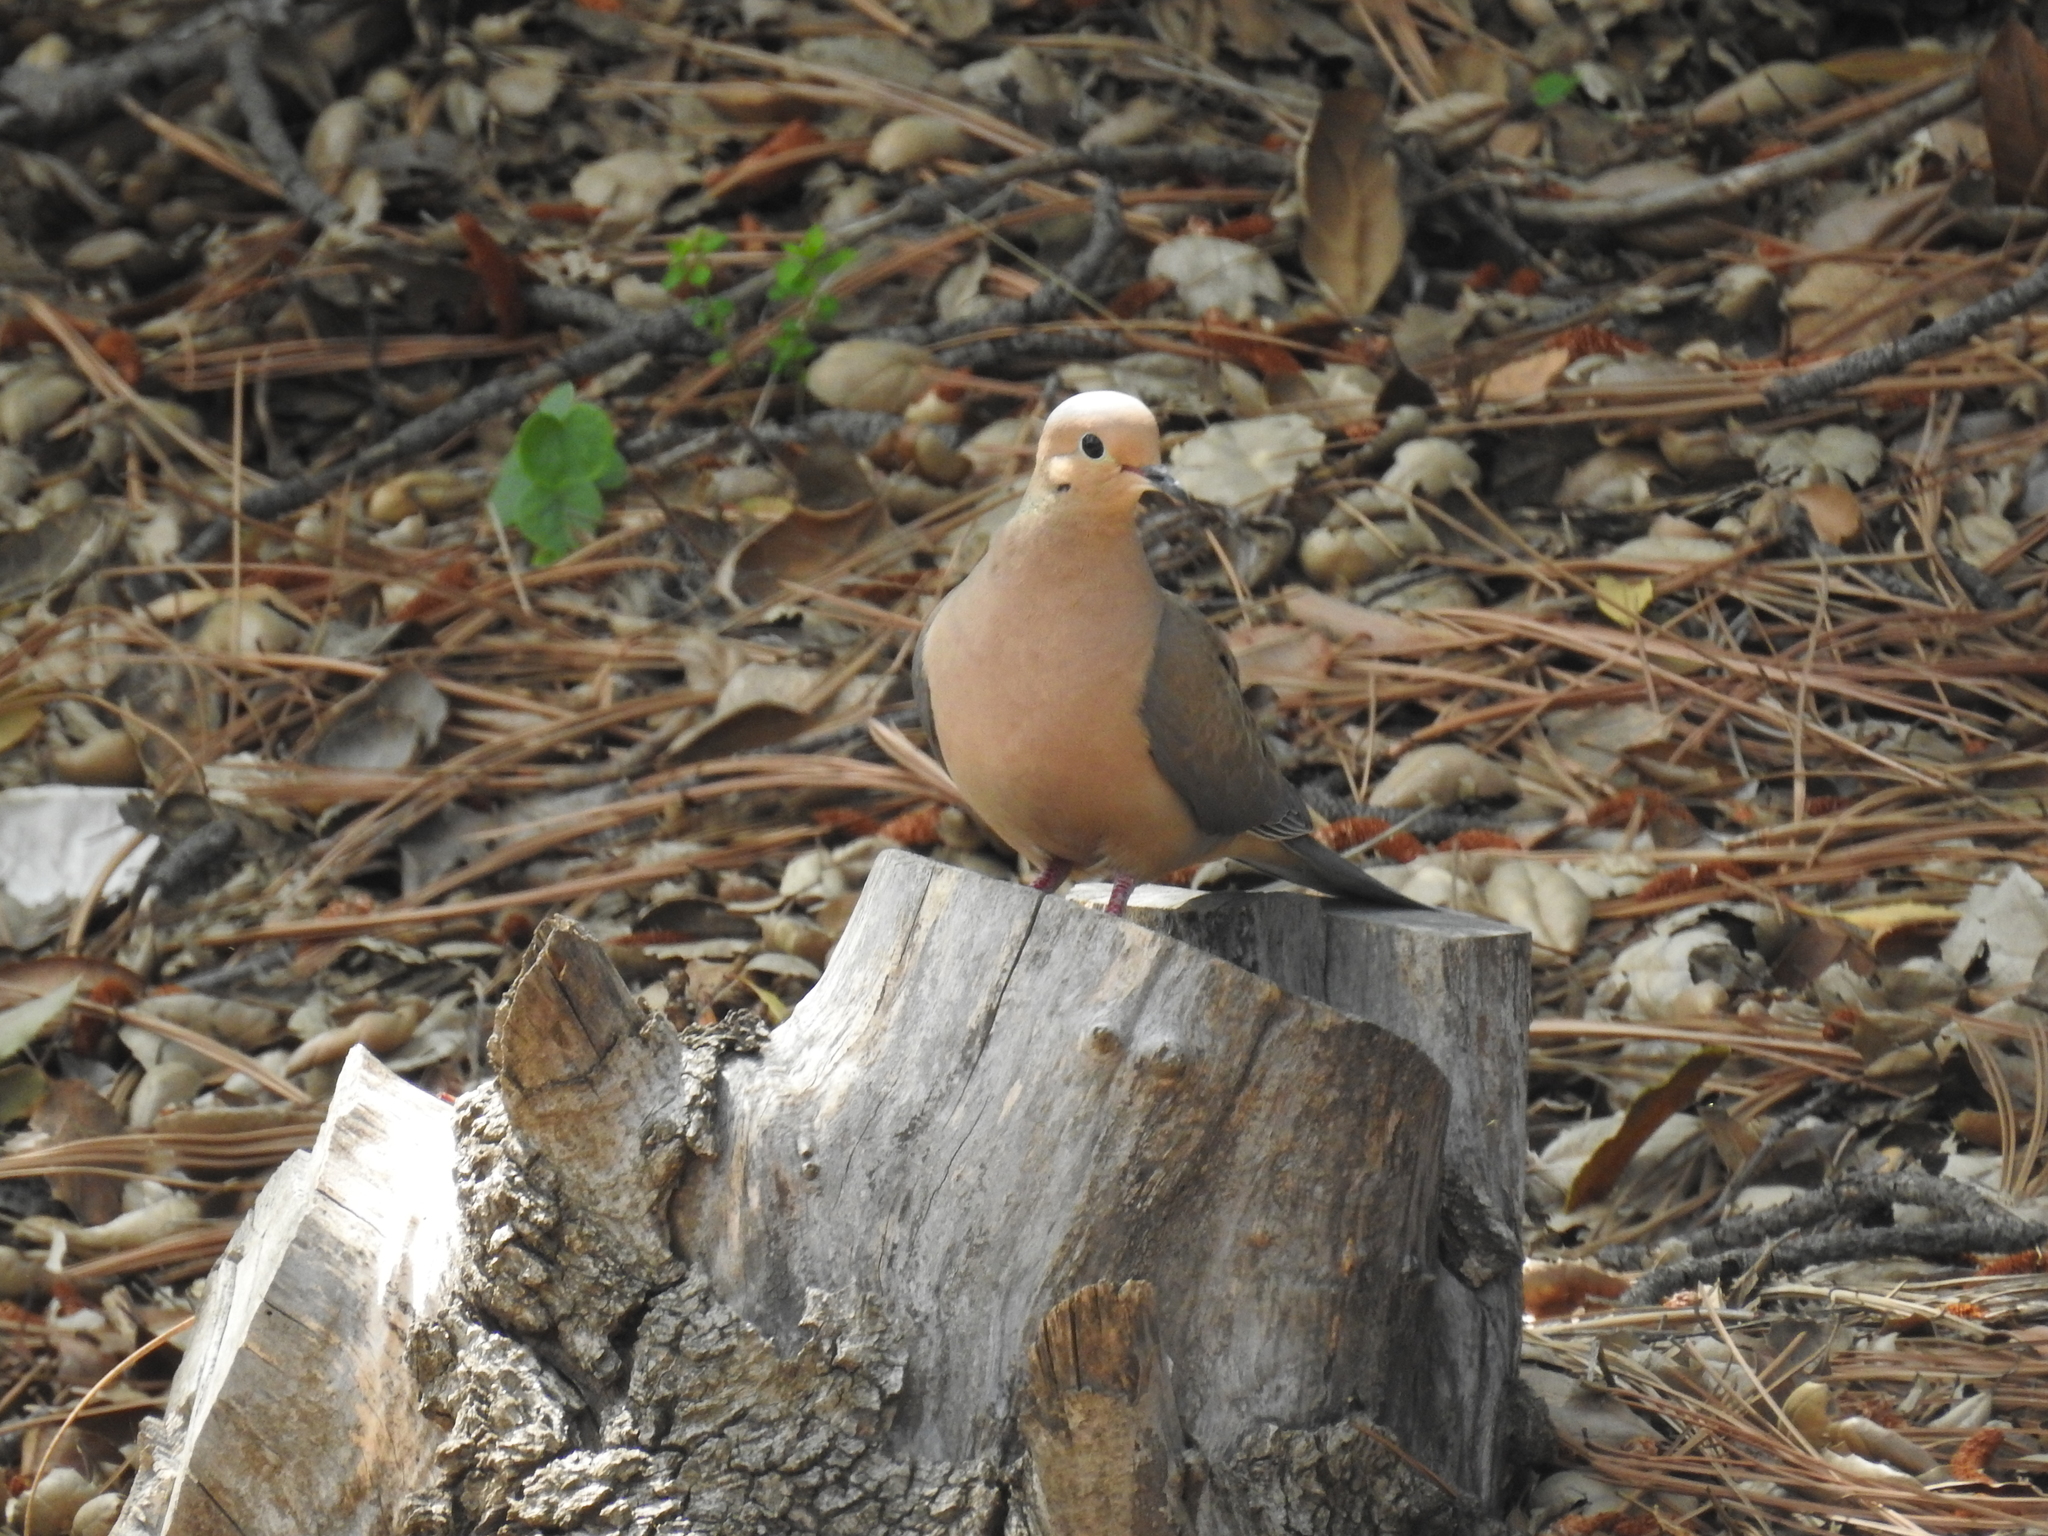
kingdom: Animalia
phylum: Chordata
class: Aves
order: Columbiformes
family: Columbidae
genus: Zenaida
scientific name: Zenaida macroura
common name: Mourning dove
